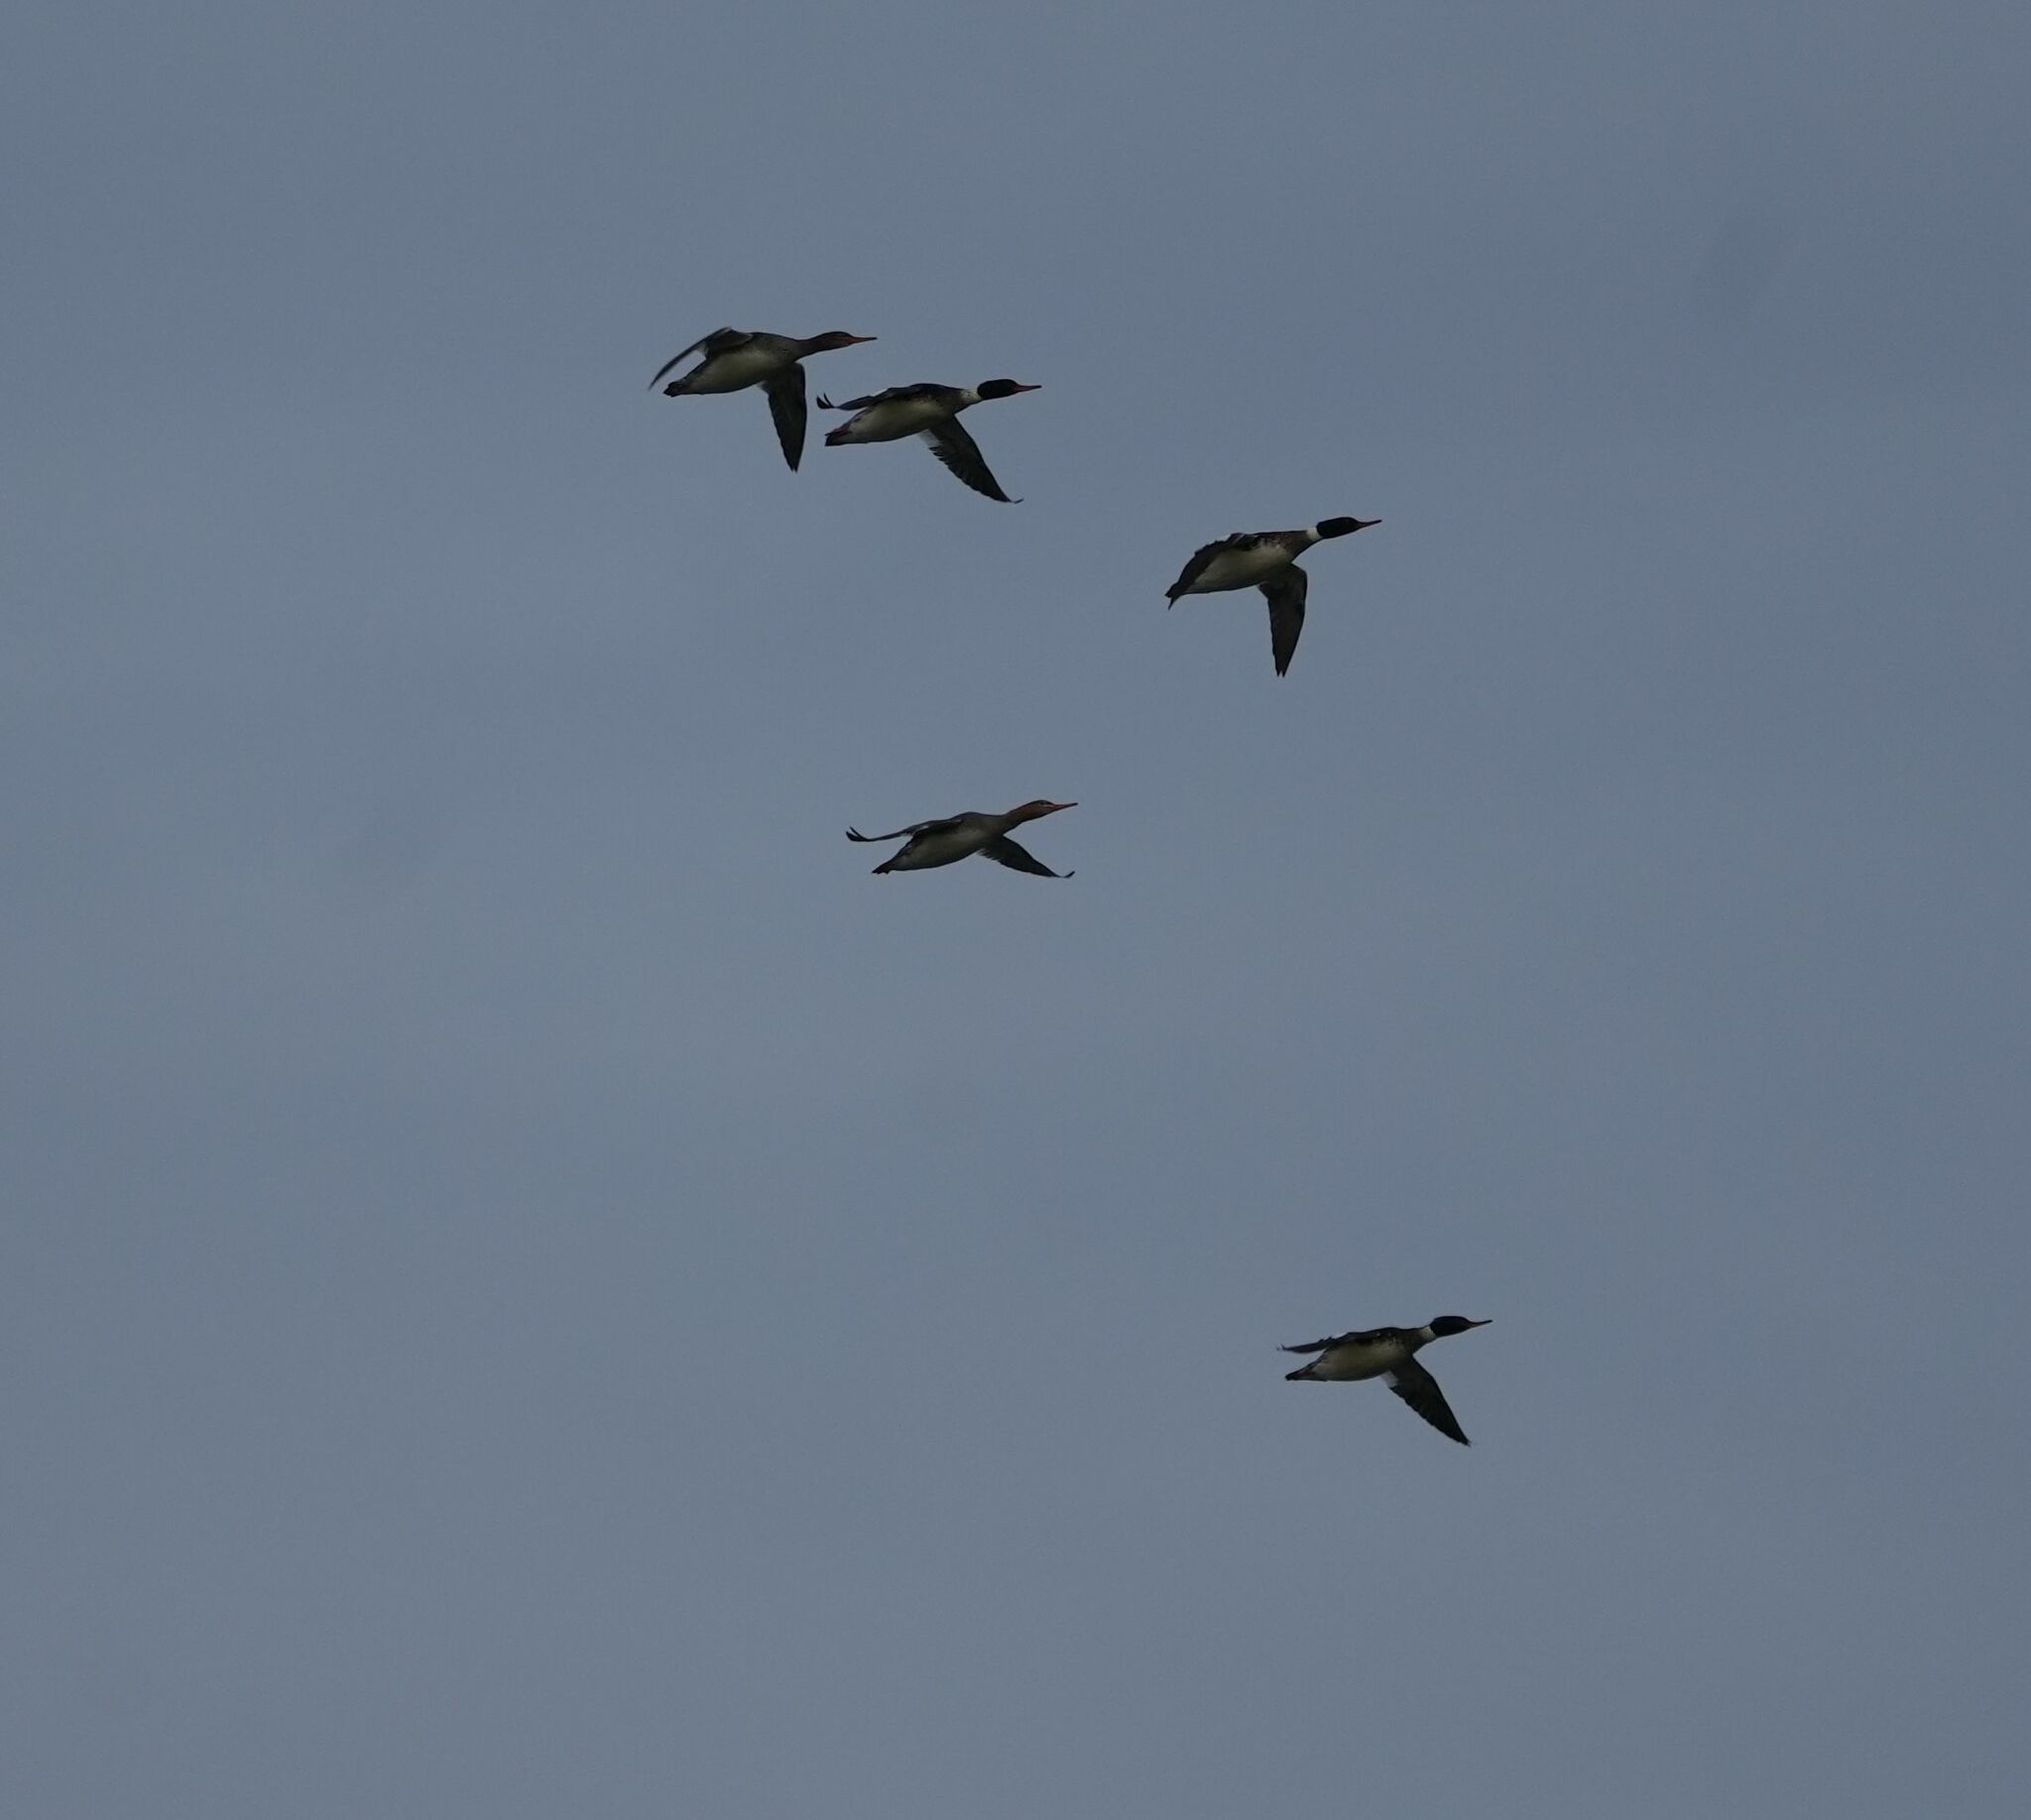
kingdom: Animalia
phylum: Chordata
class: Aves
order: Anseriformes
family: Anatidae
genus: Mergus
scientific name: Mergus serrator
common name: Red-breasted merganser
